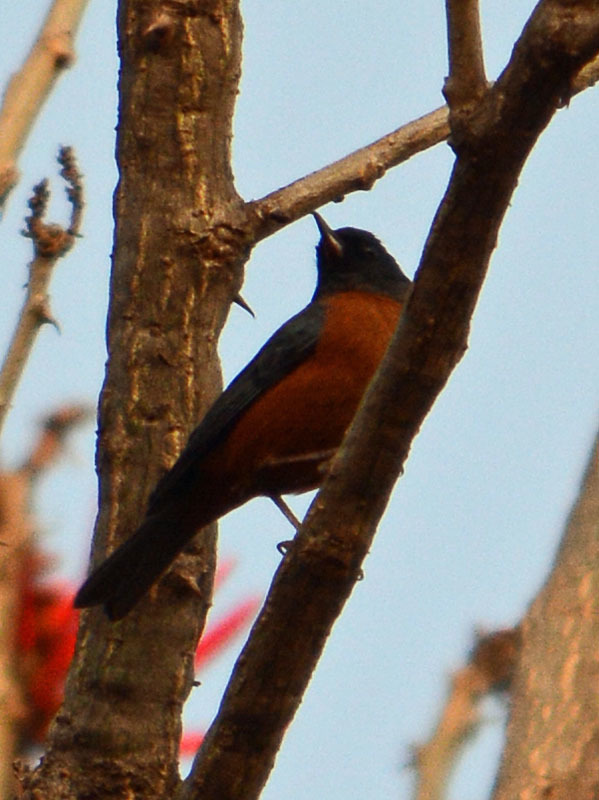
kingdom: Animalia
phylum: Chordata
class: Aves
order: Passeriformes
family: Thraupidae
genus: Diglossa
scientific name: Diglossa baritula
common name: Cinnamon-bellied flowerpiercer
